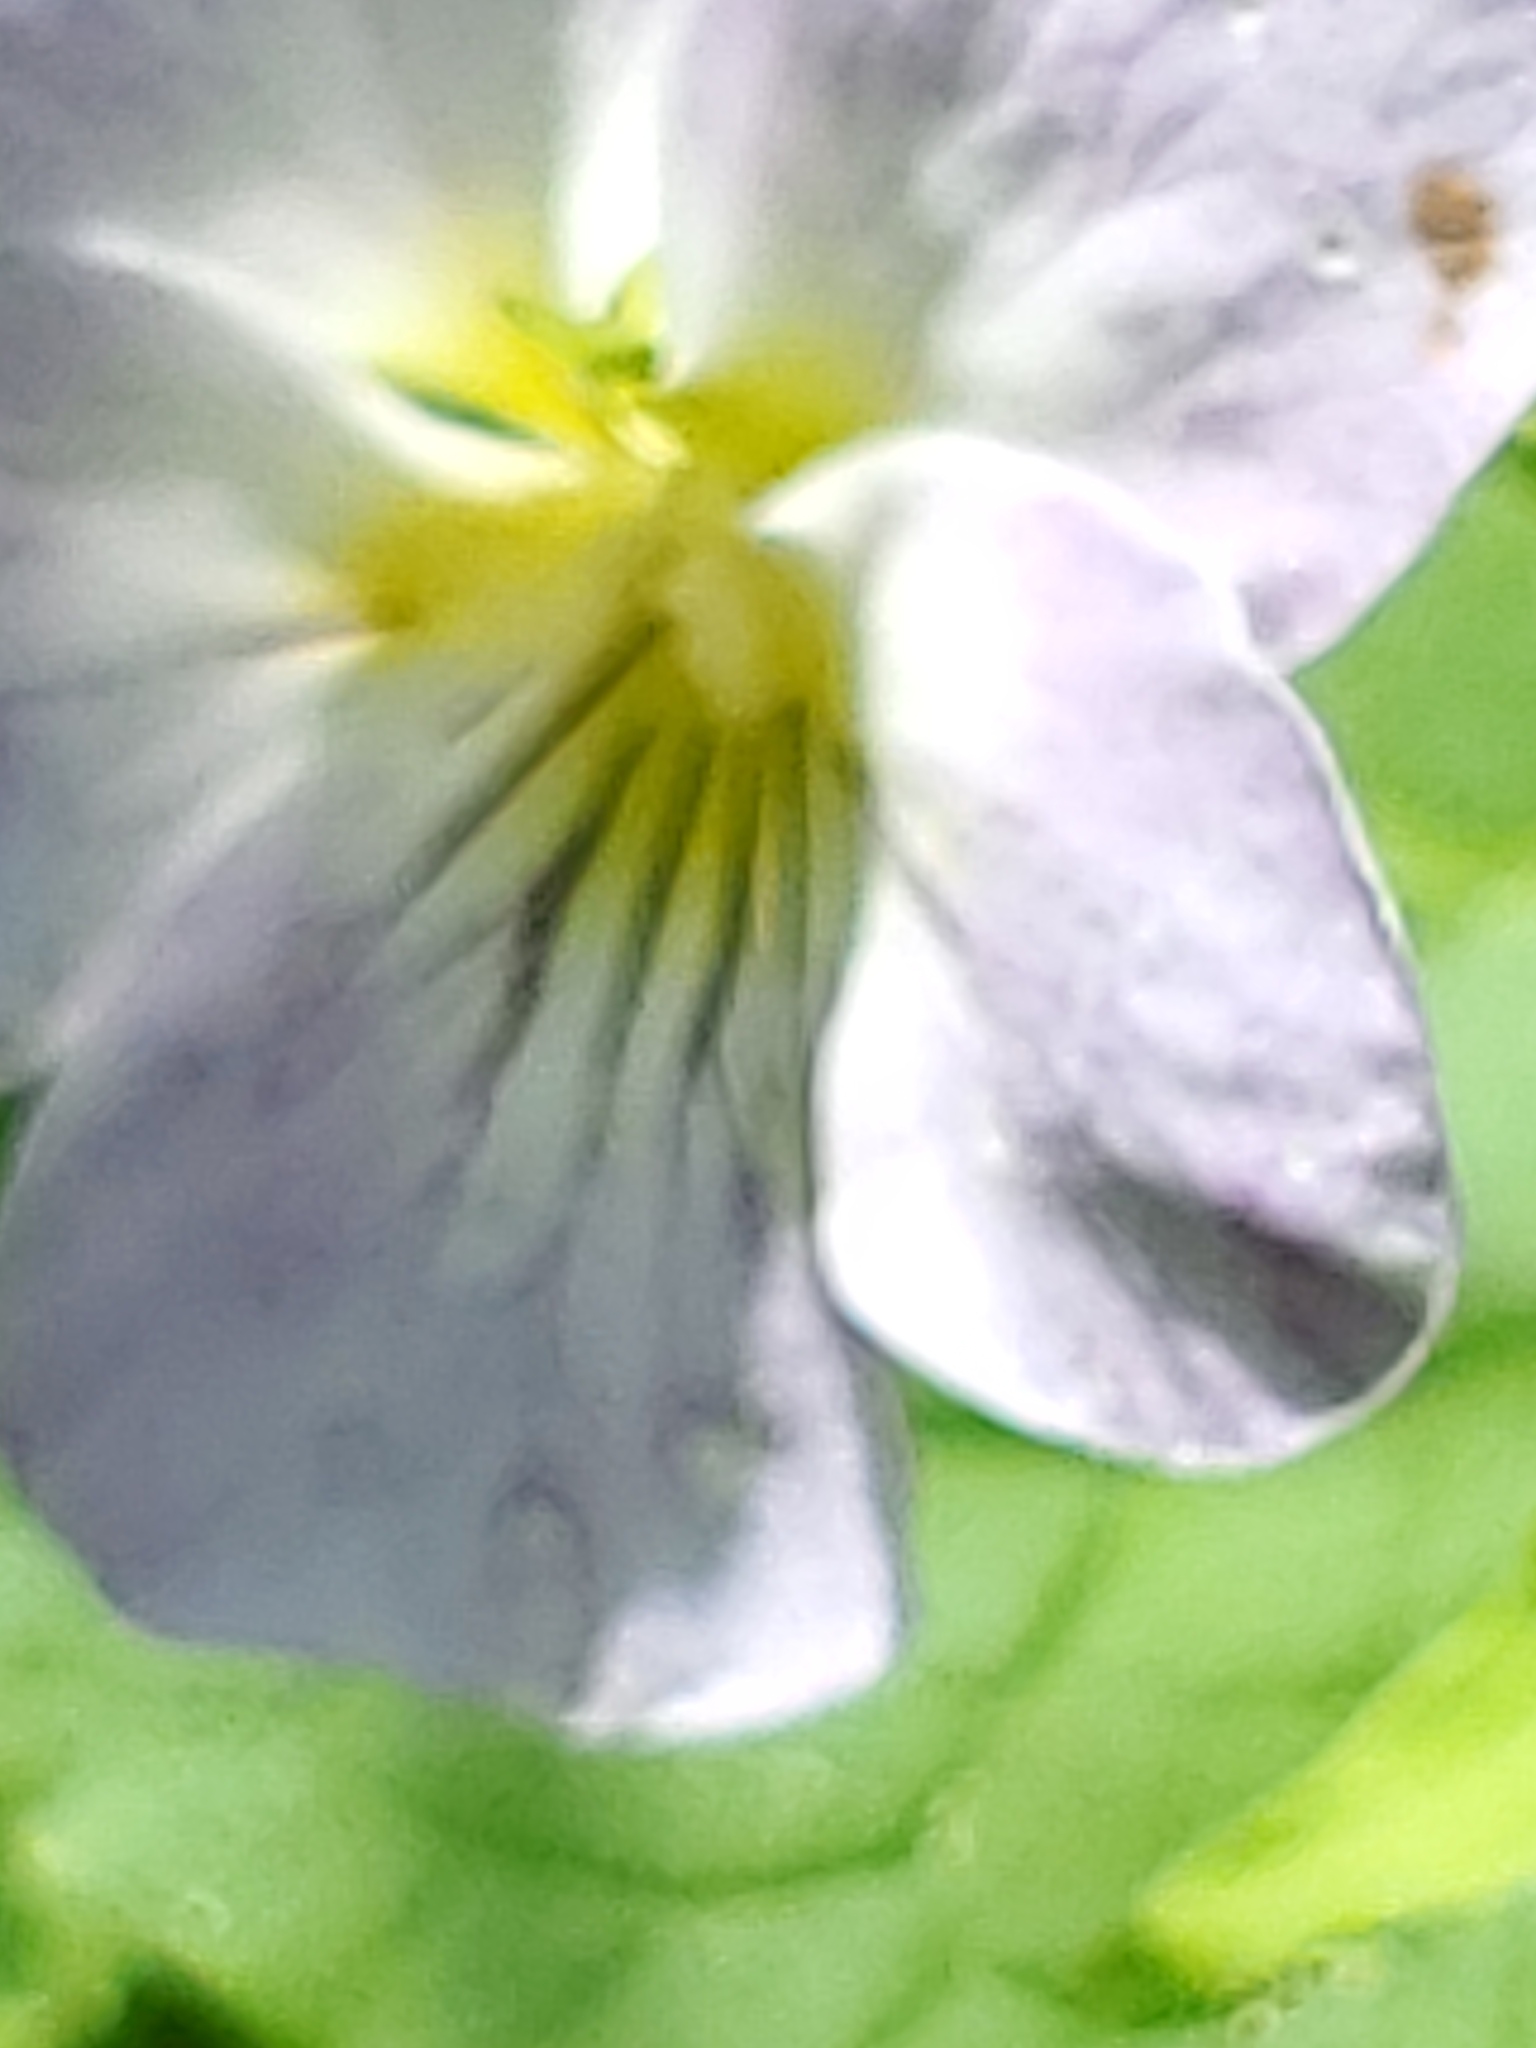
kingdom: Plantae
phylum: Tracheophyta
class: Magnoliopsida
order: Malpighiales
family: Violaceae
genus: Viola
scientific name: Viola canadensis
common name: Canada violet
